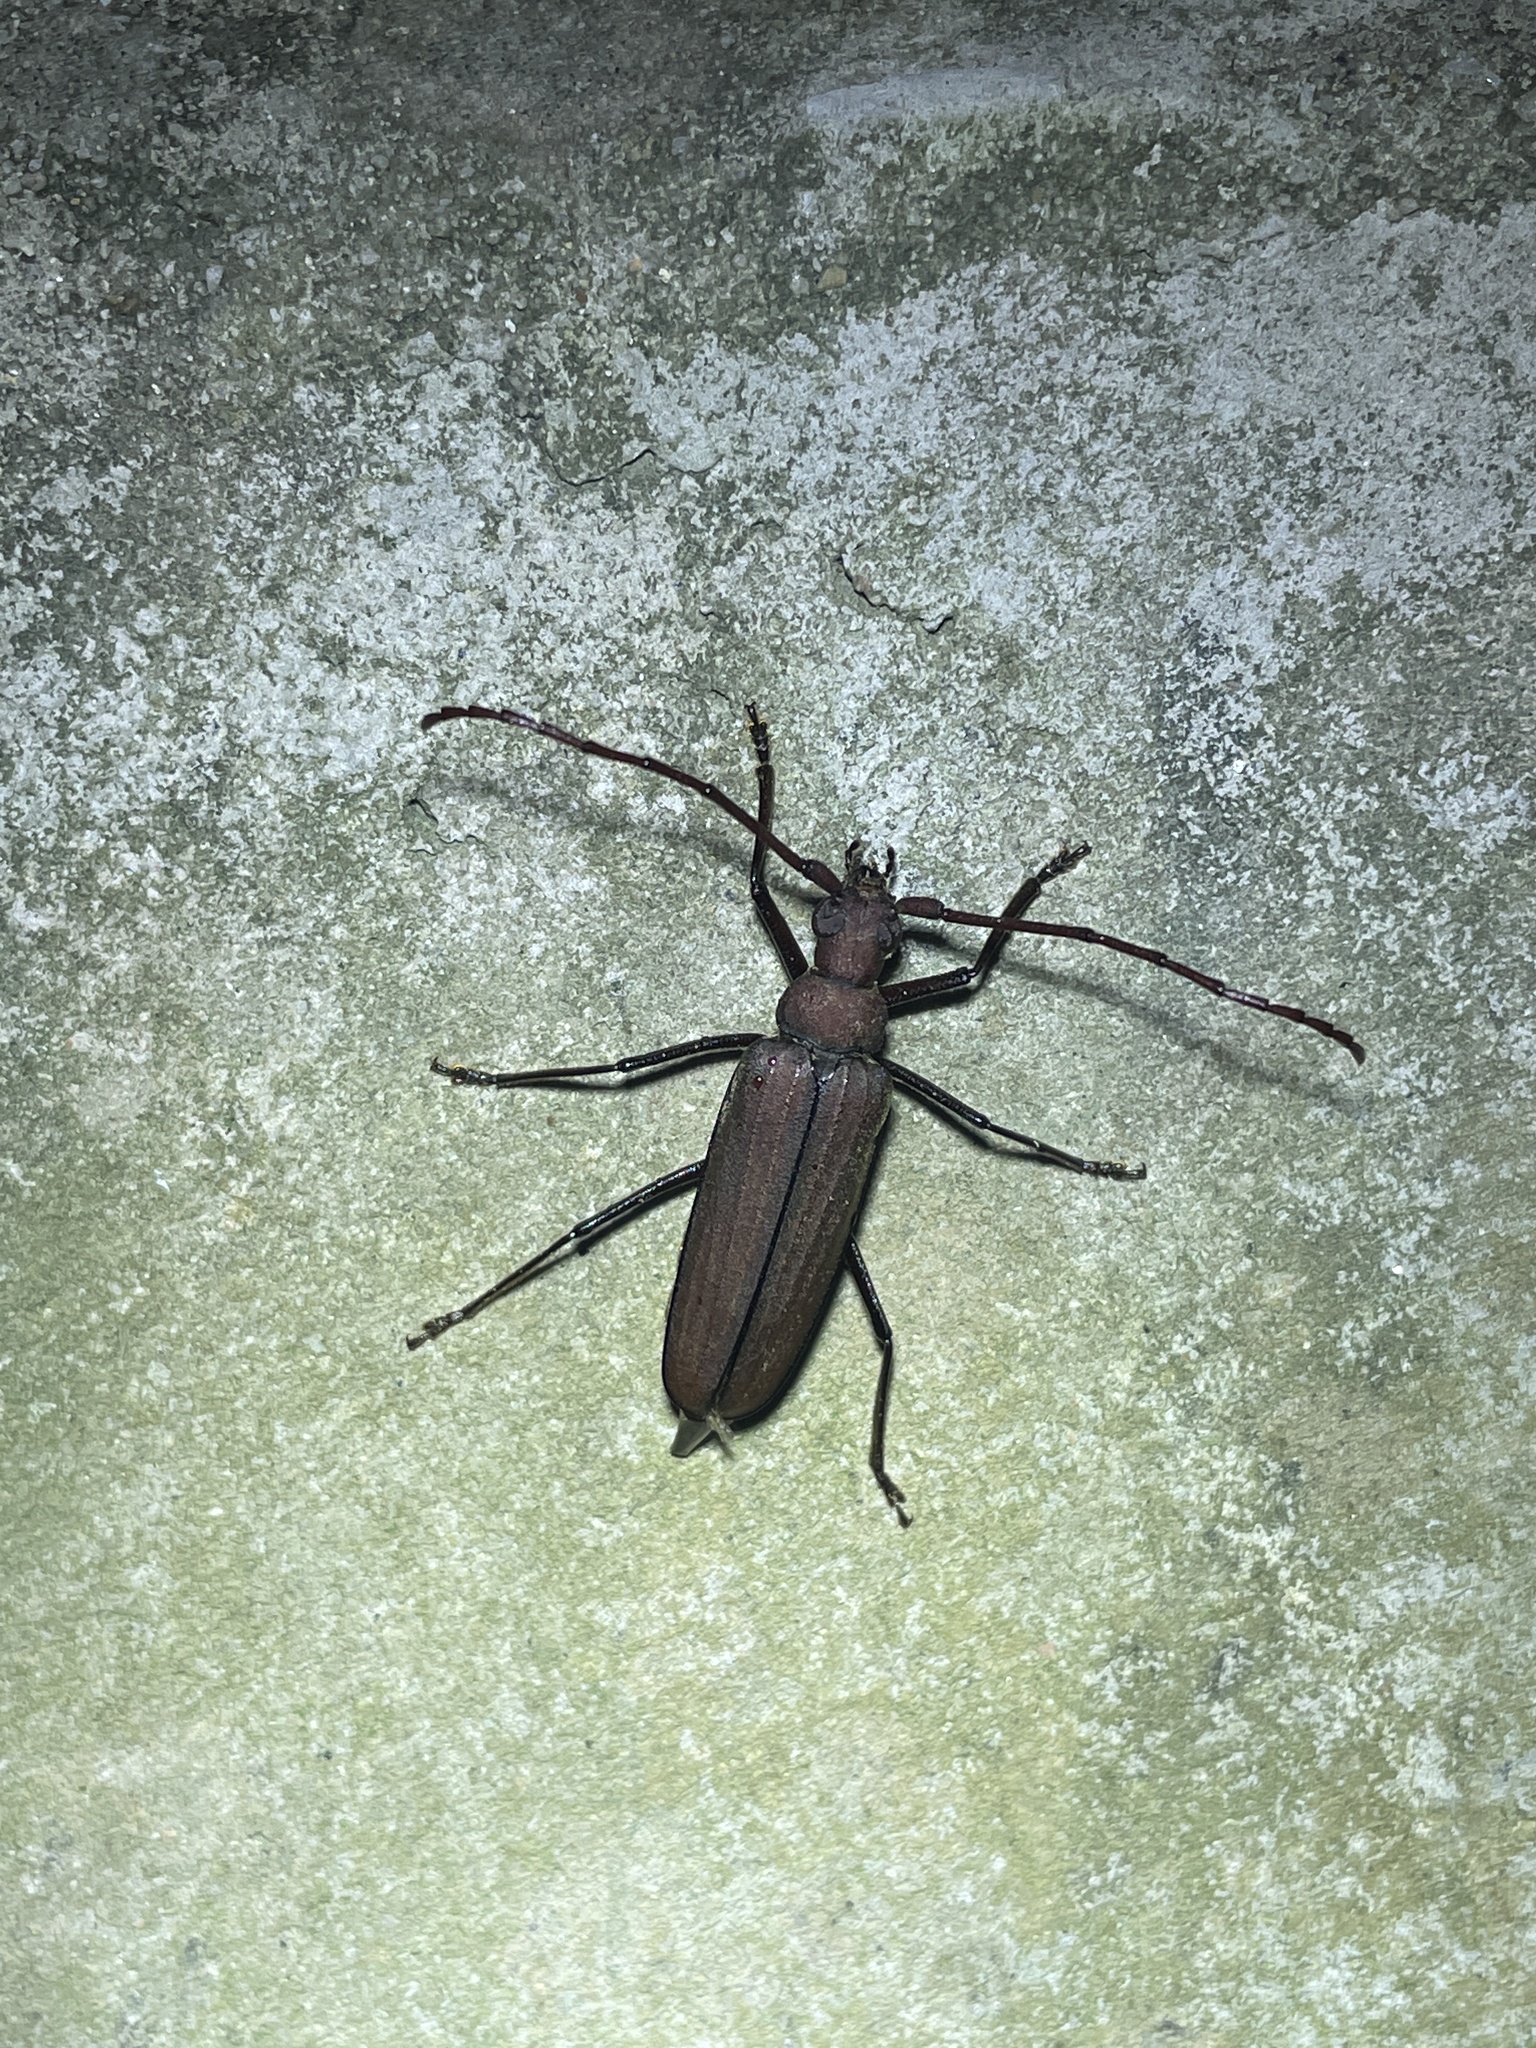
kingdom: Animalia
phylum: Arthropoda
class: Insecta
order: Coleoptera
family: Cerambycidae
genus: Aegolipton
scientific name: Aegolipton marginale
